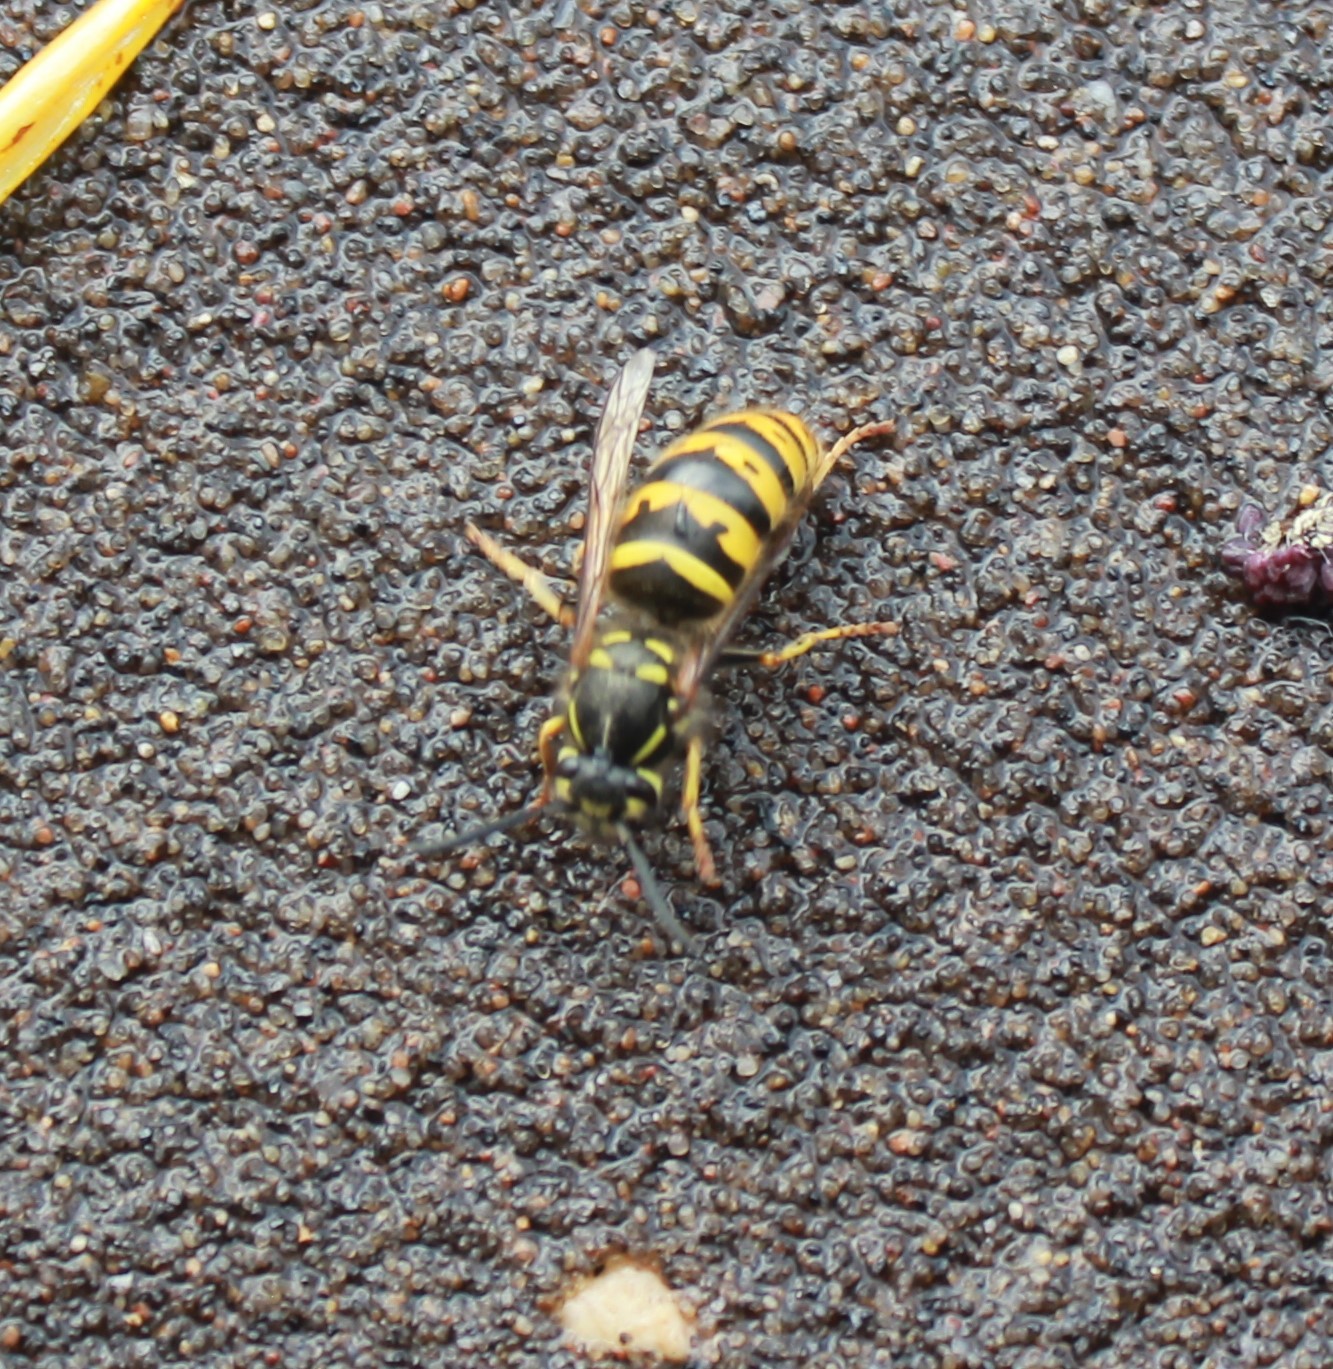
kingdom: Animalia
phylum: Arthropoda
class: Insecta
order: Hymenoptera
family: Vespidae
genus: Vespula
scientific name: Vespula vulgaris
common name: Common wasp
